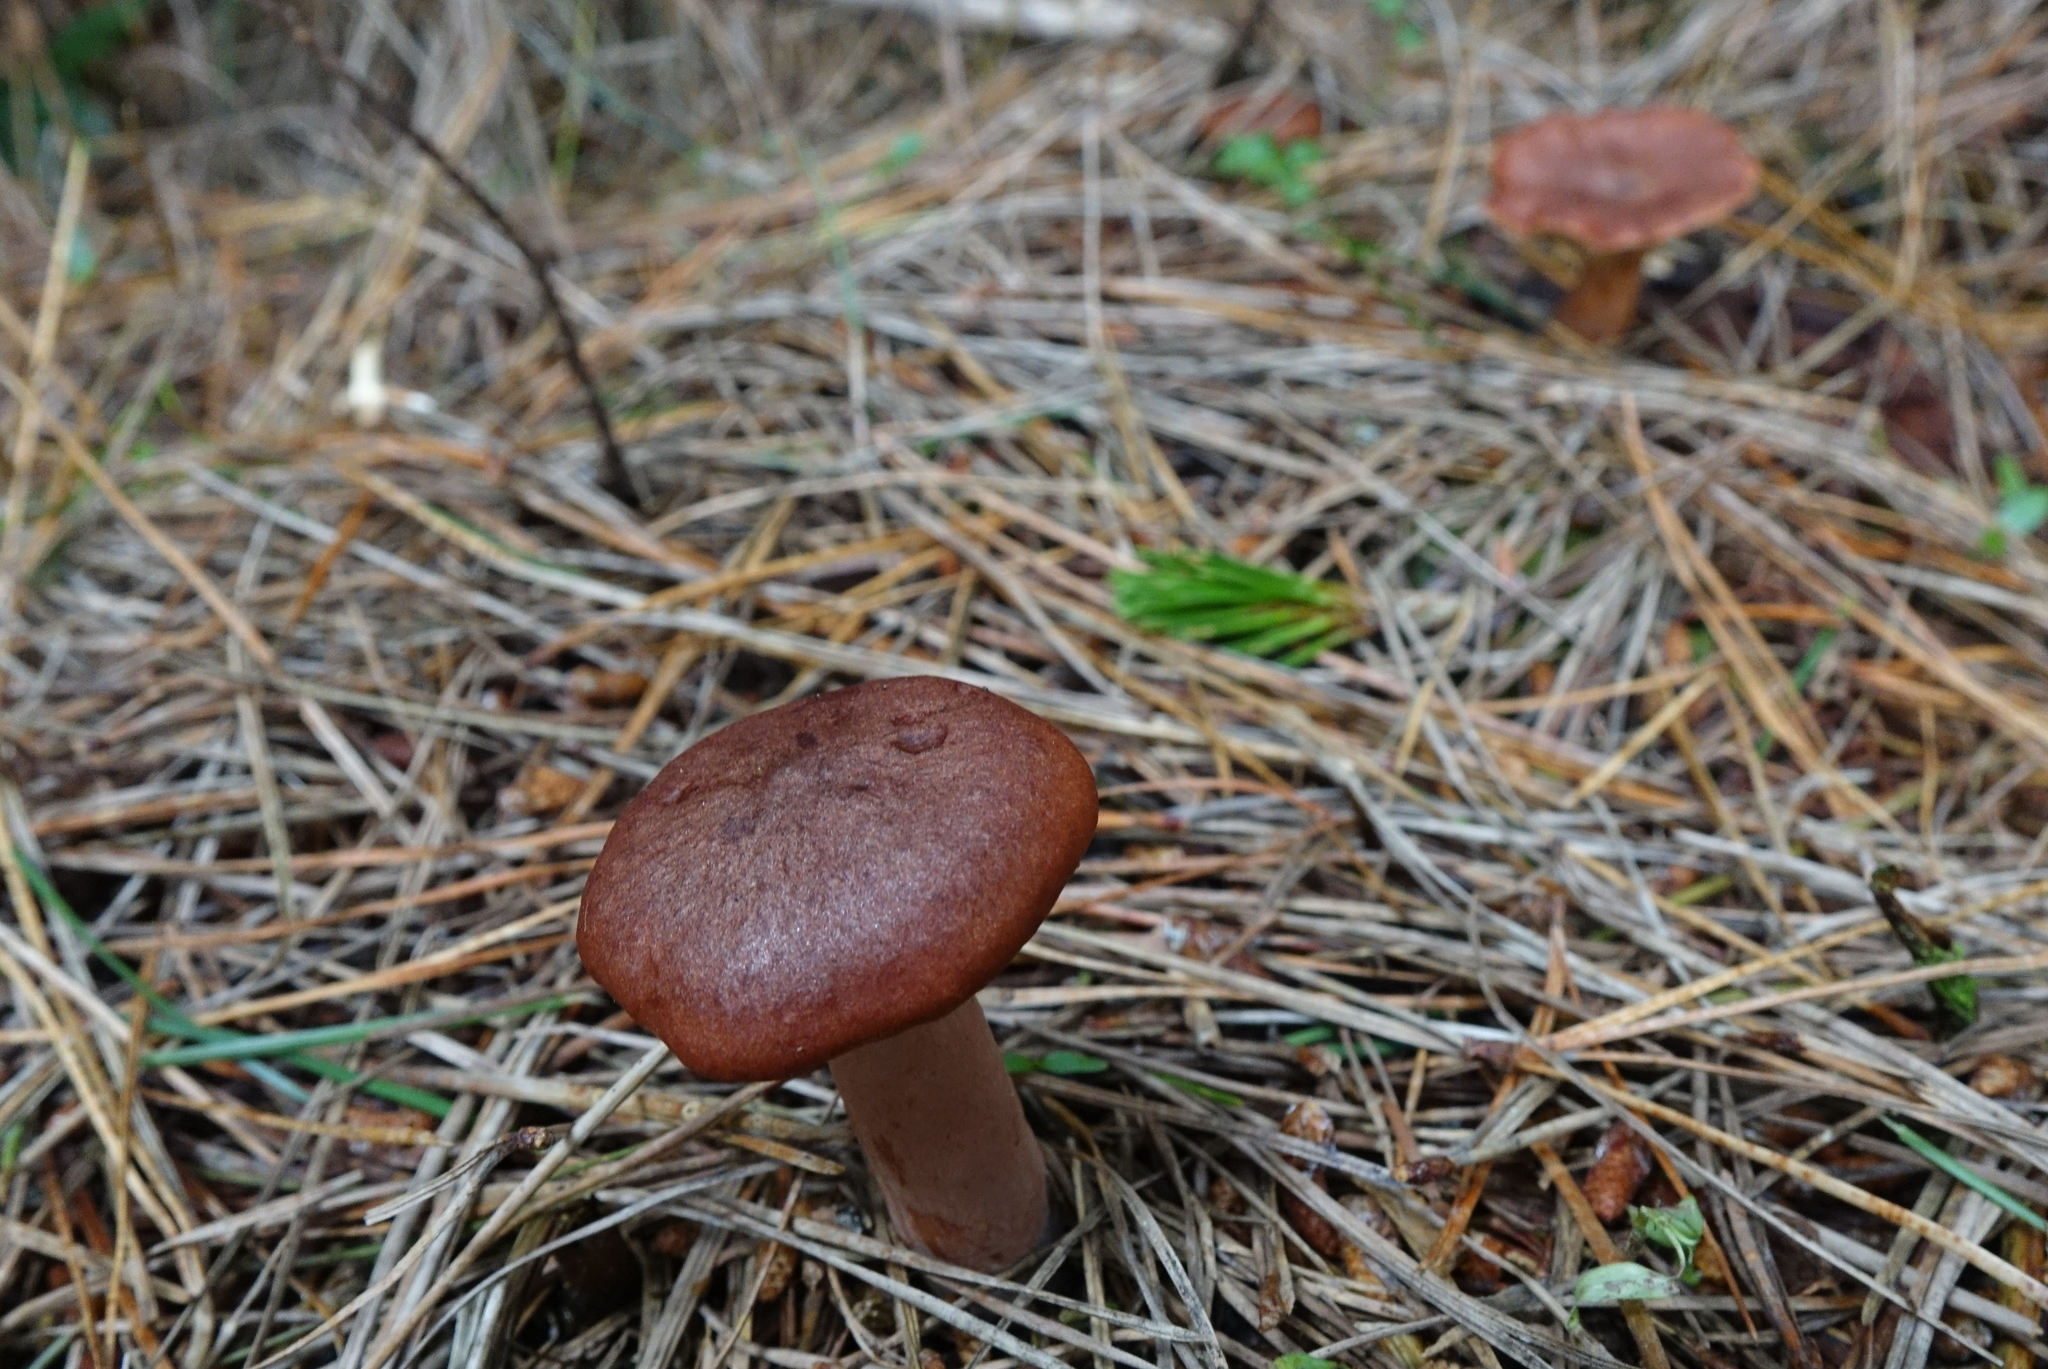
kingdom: Fungi
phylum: Basidiomycota
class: Agaricomycetes
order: Russulales
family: Russulaceae
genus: Lactarius
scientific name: Lactarius rufus
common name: Rufous milk-cap
